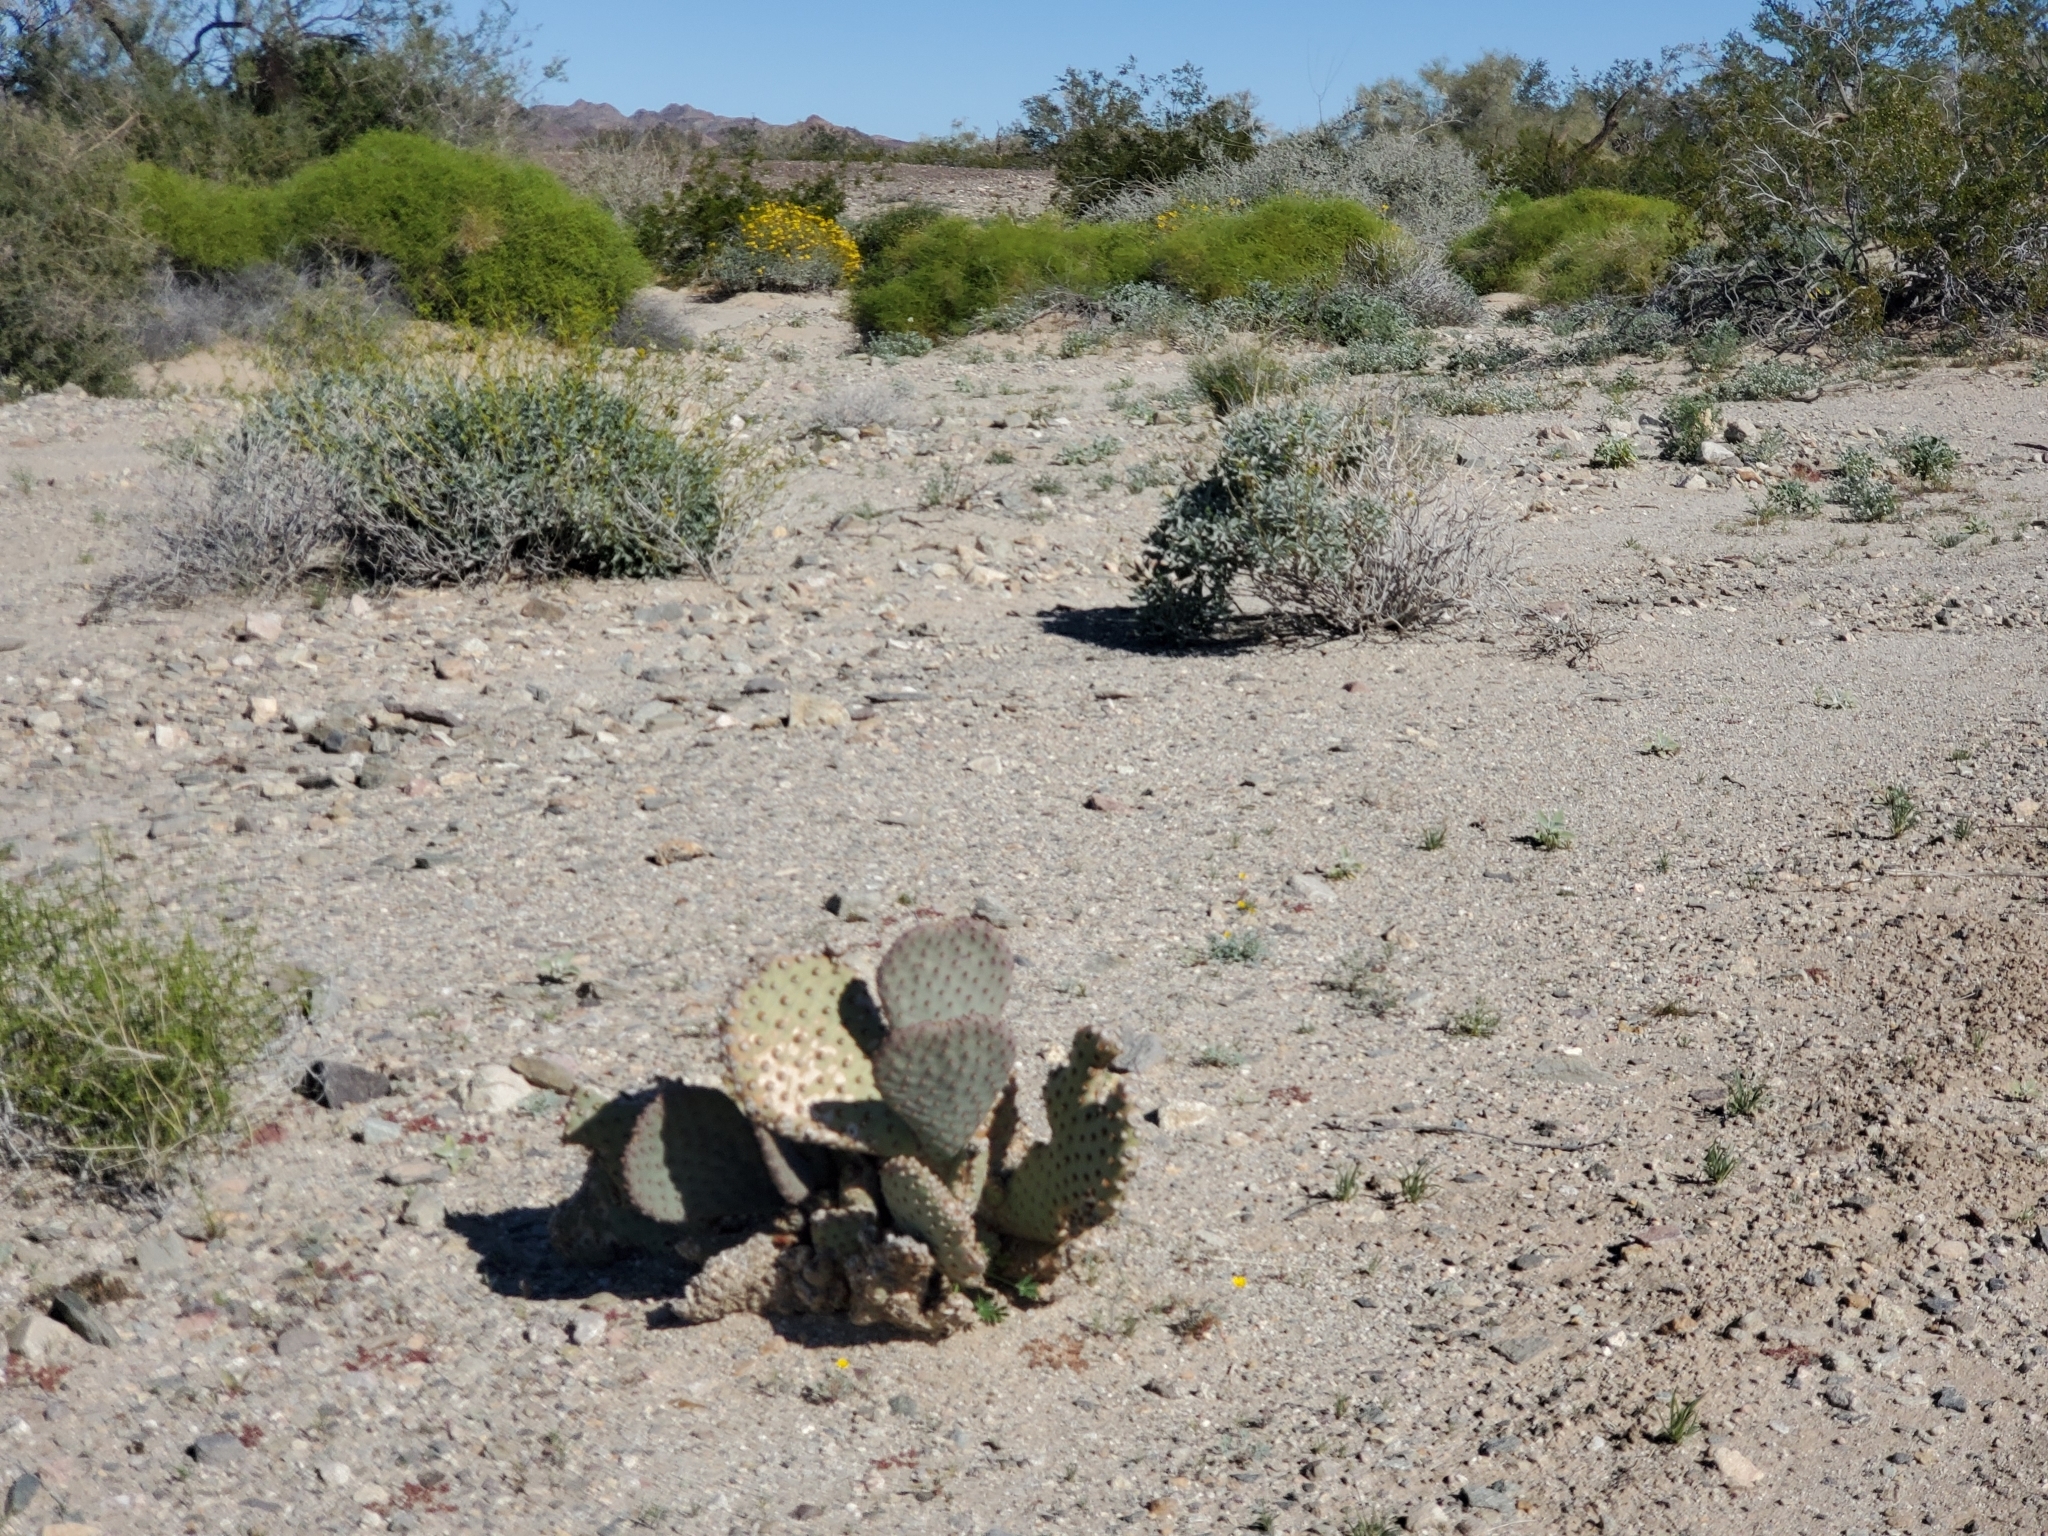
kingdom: Plantae
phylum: Tracheophyta
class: Magnoliopsida
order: Caryophyllales
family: Cactaceae
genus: Opuntia
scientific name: Opuntia basilaris
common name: Beavertail prickly-pear
